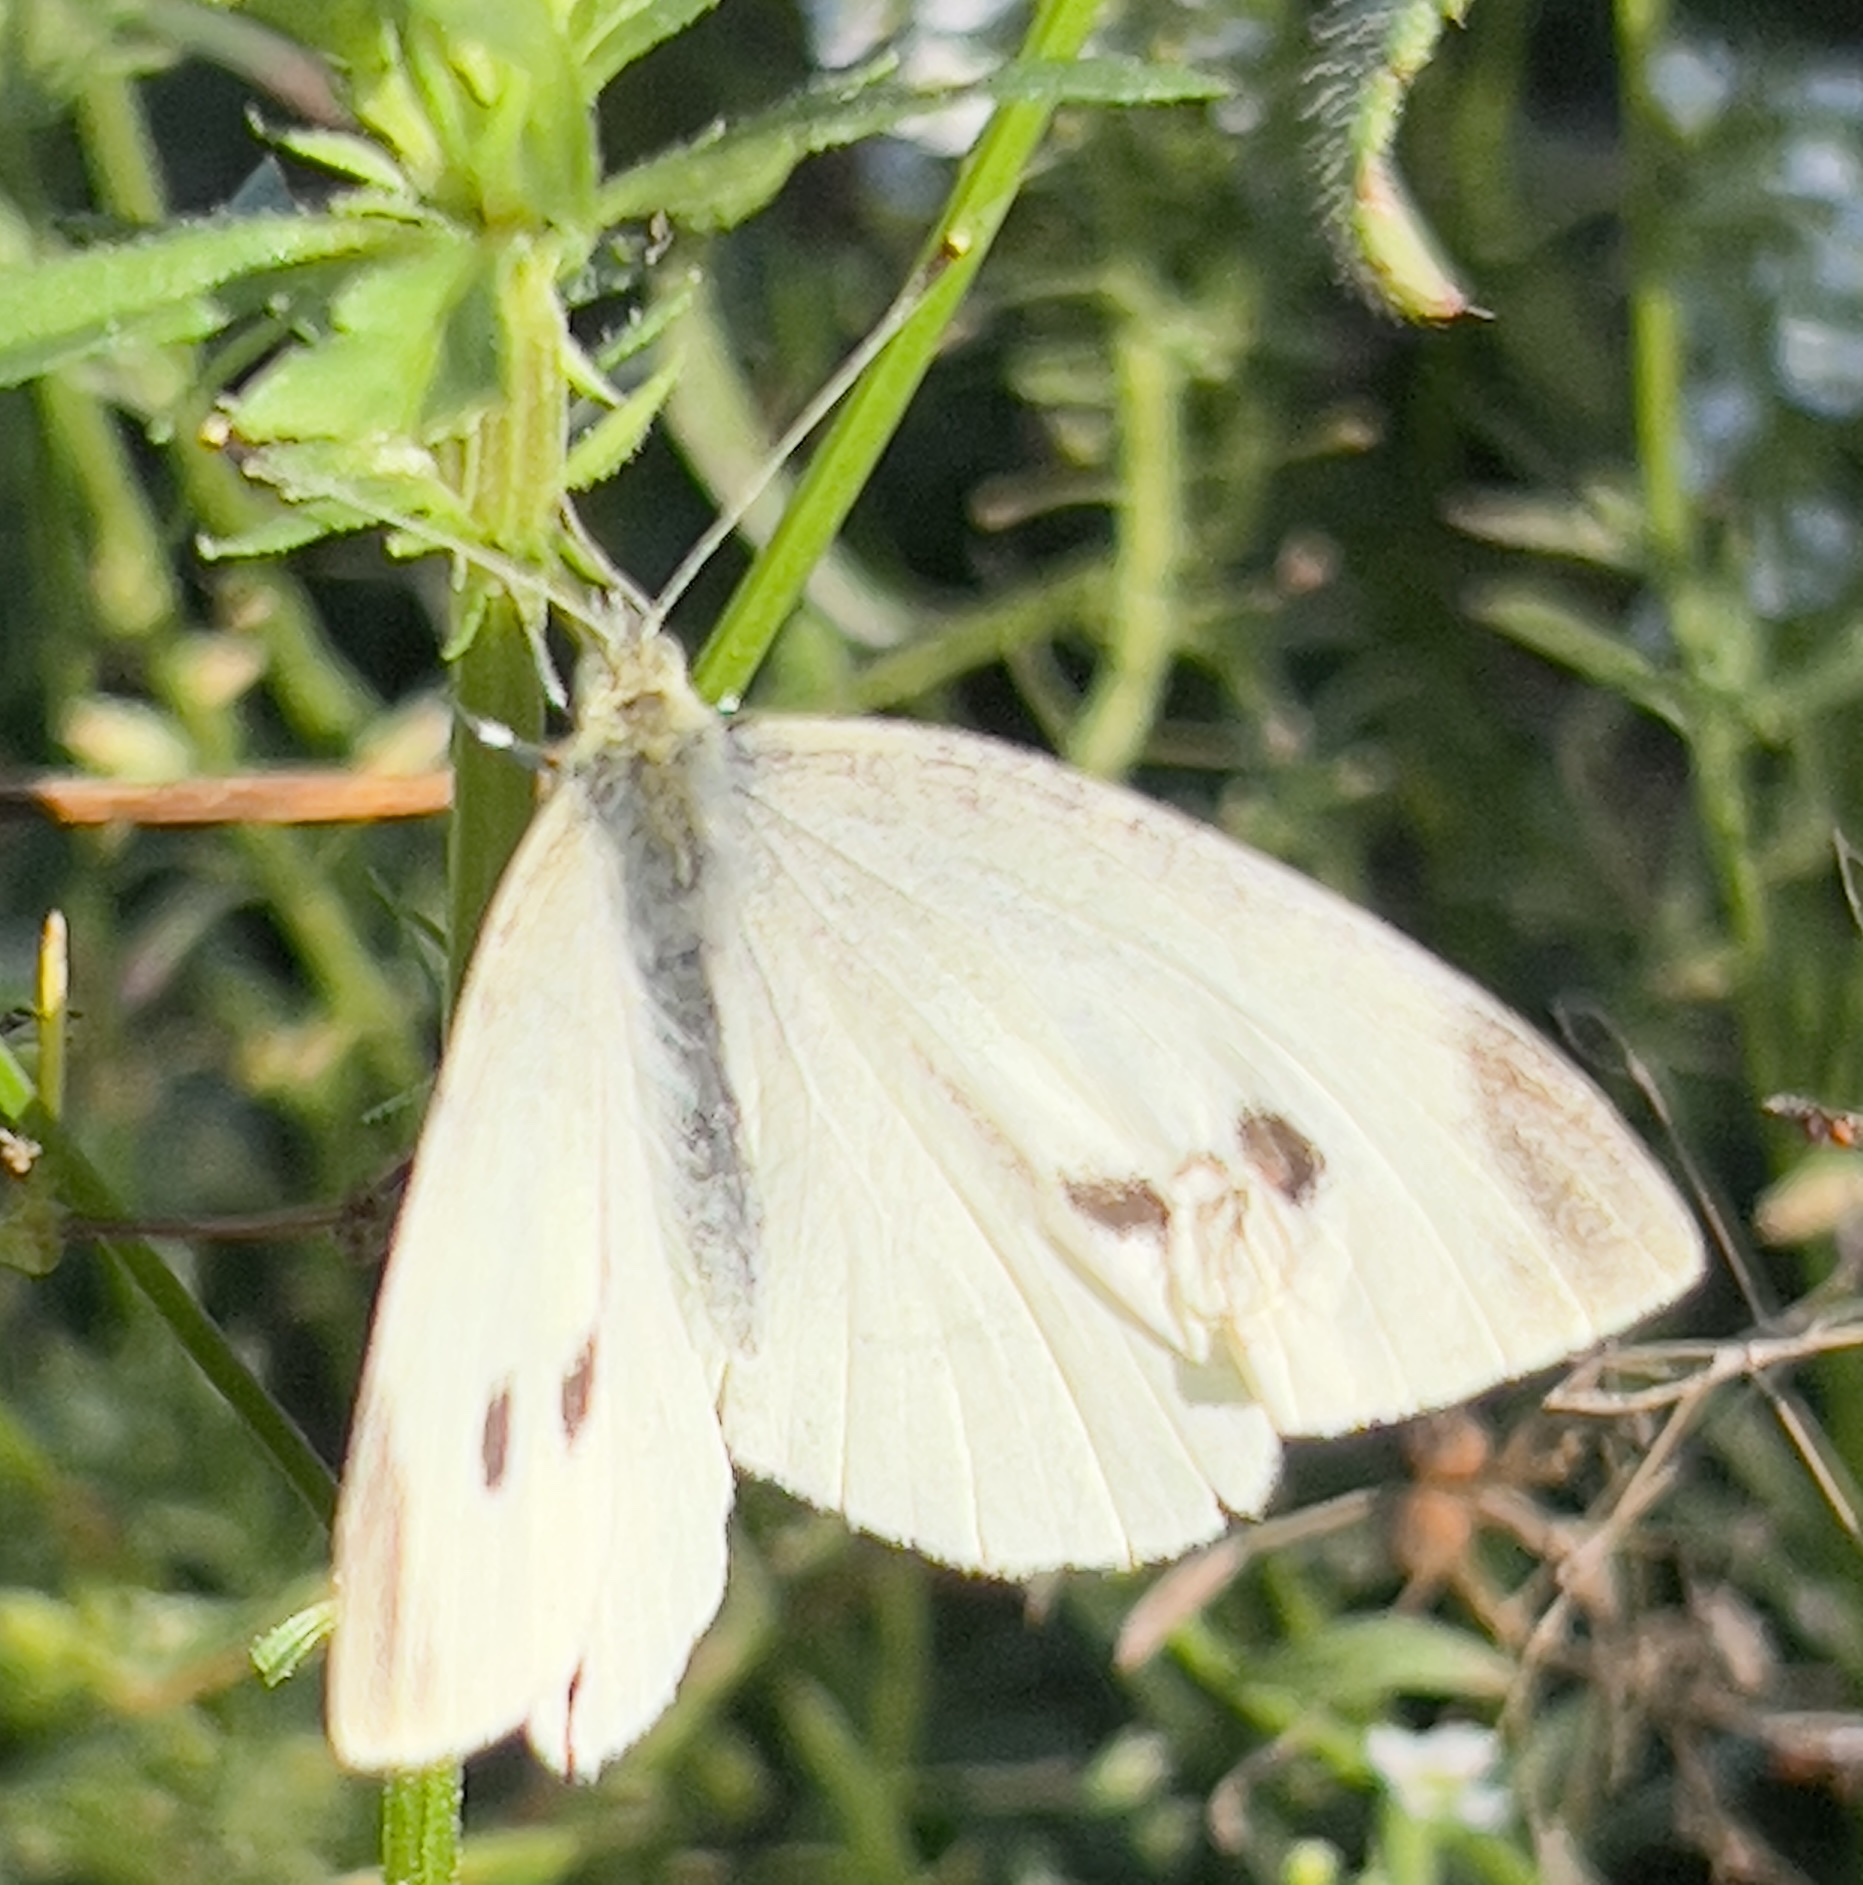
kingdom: Animalia
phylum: Arthropoda
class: Insecta
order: Lepidoptera
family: Pieridae
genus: Pieris
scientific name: Pieris rapae
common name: Small white
